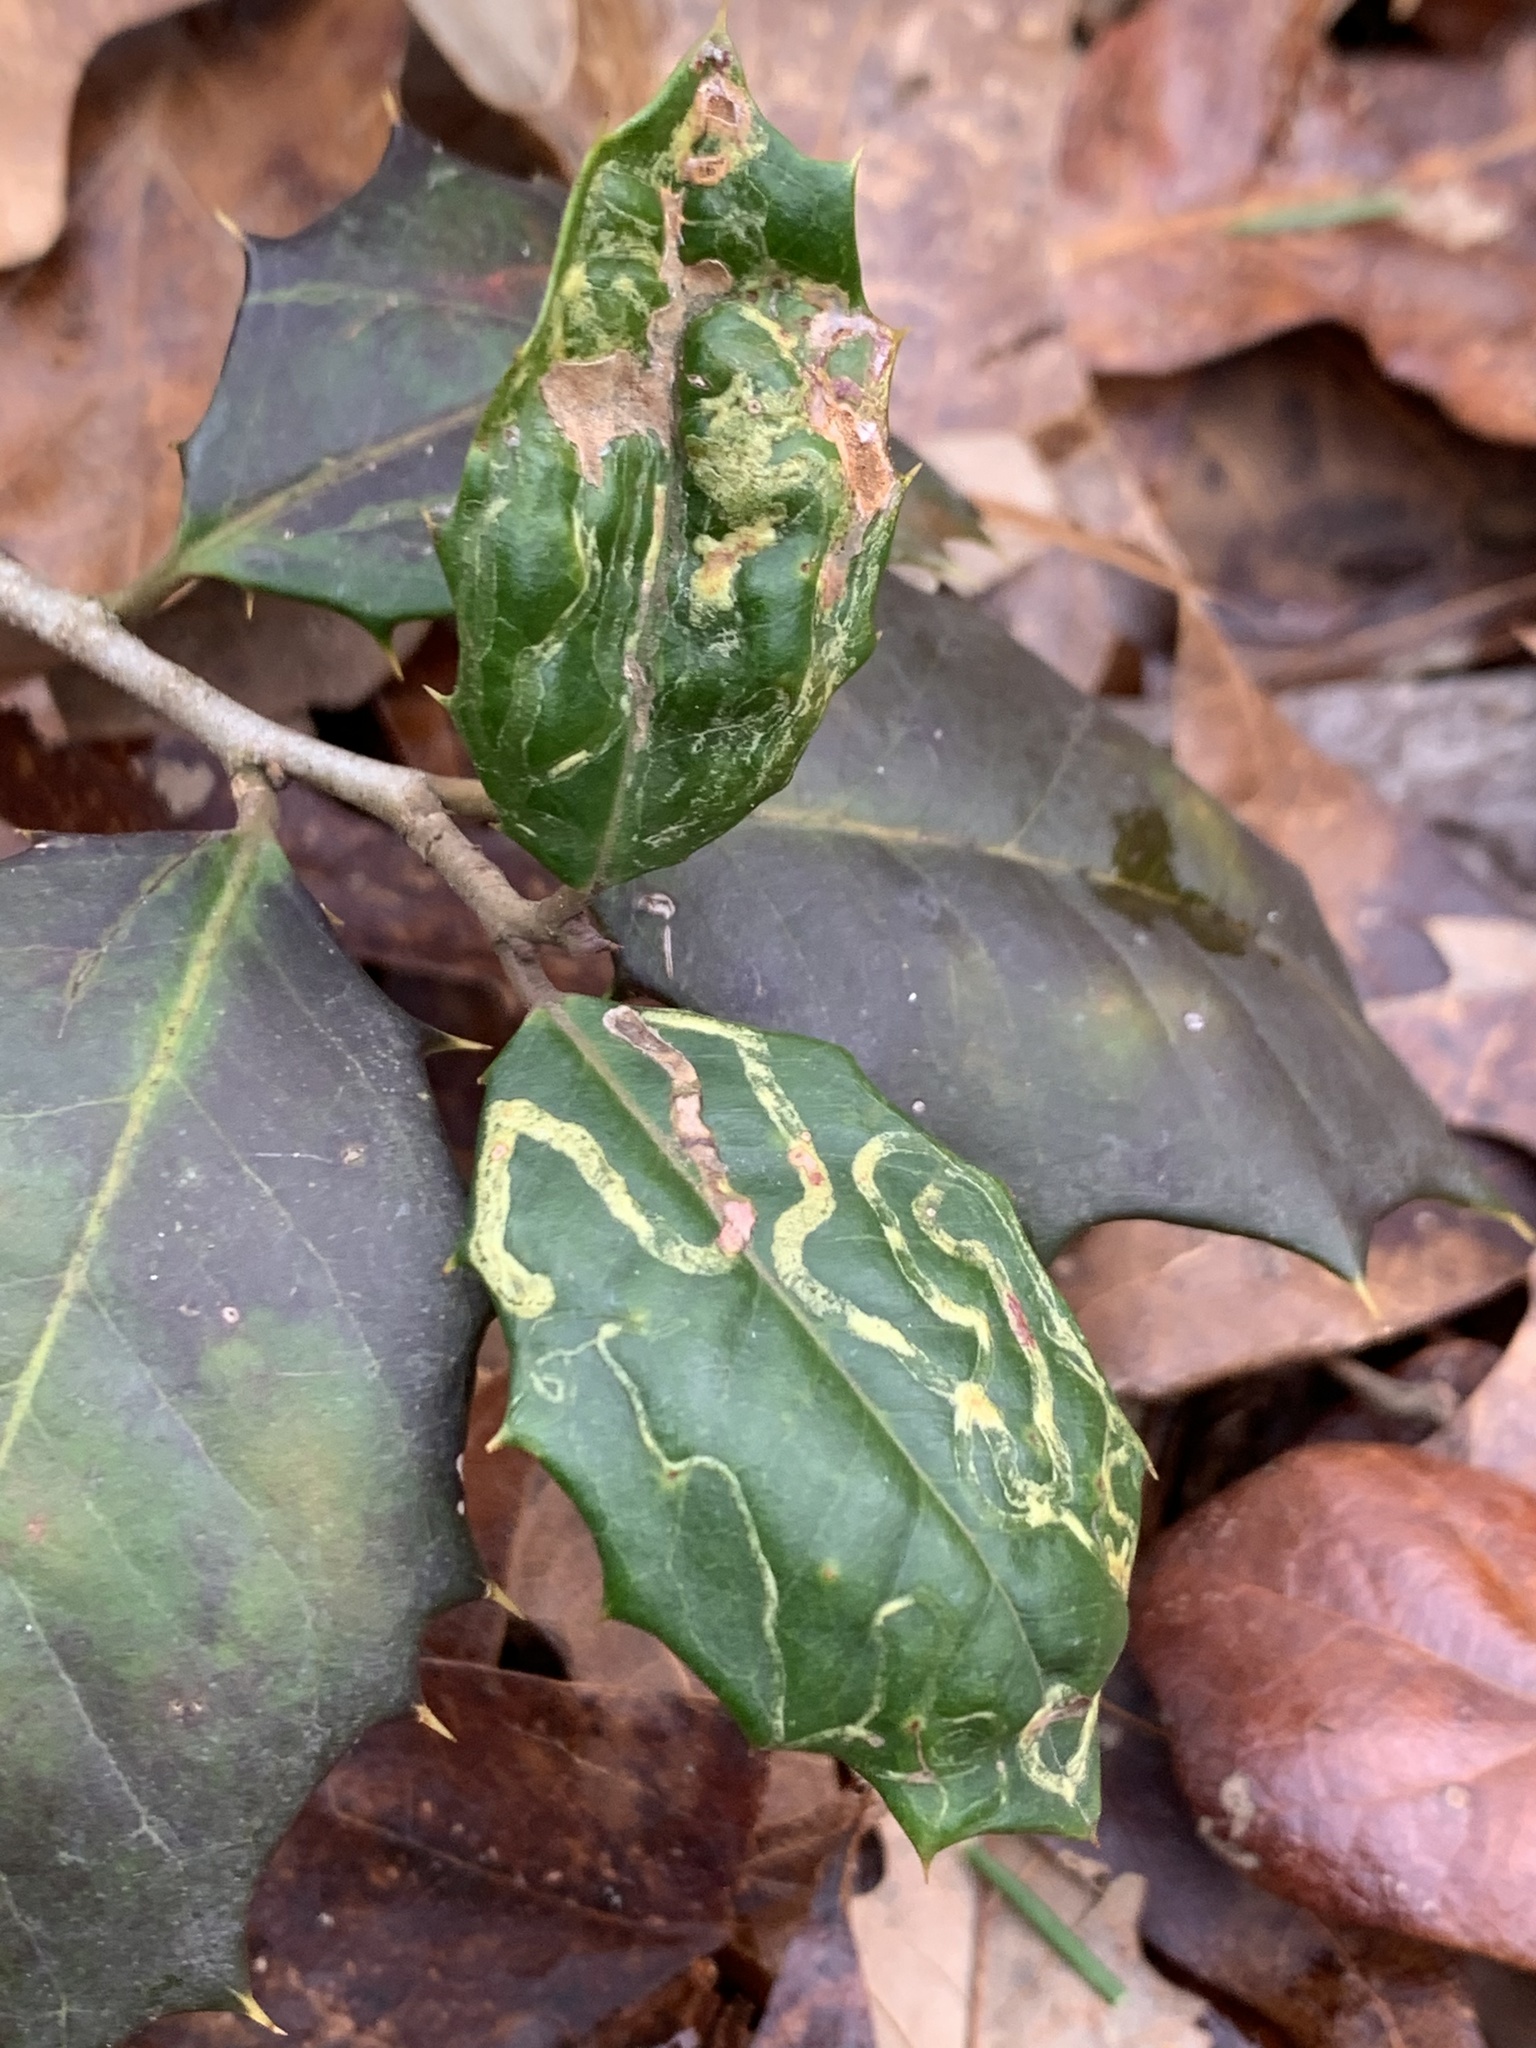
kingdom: Animalia
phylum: Arthropoda
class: Insecta
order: Diptera
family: Agromyzidae
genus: Phytomyza
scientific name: Phytomyza opacae
